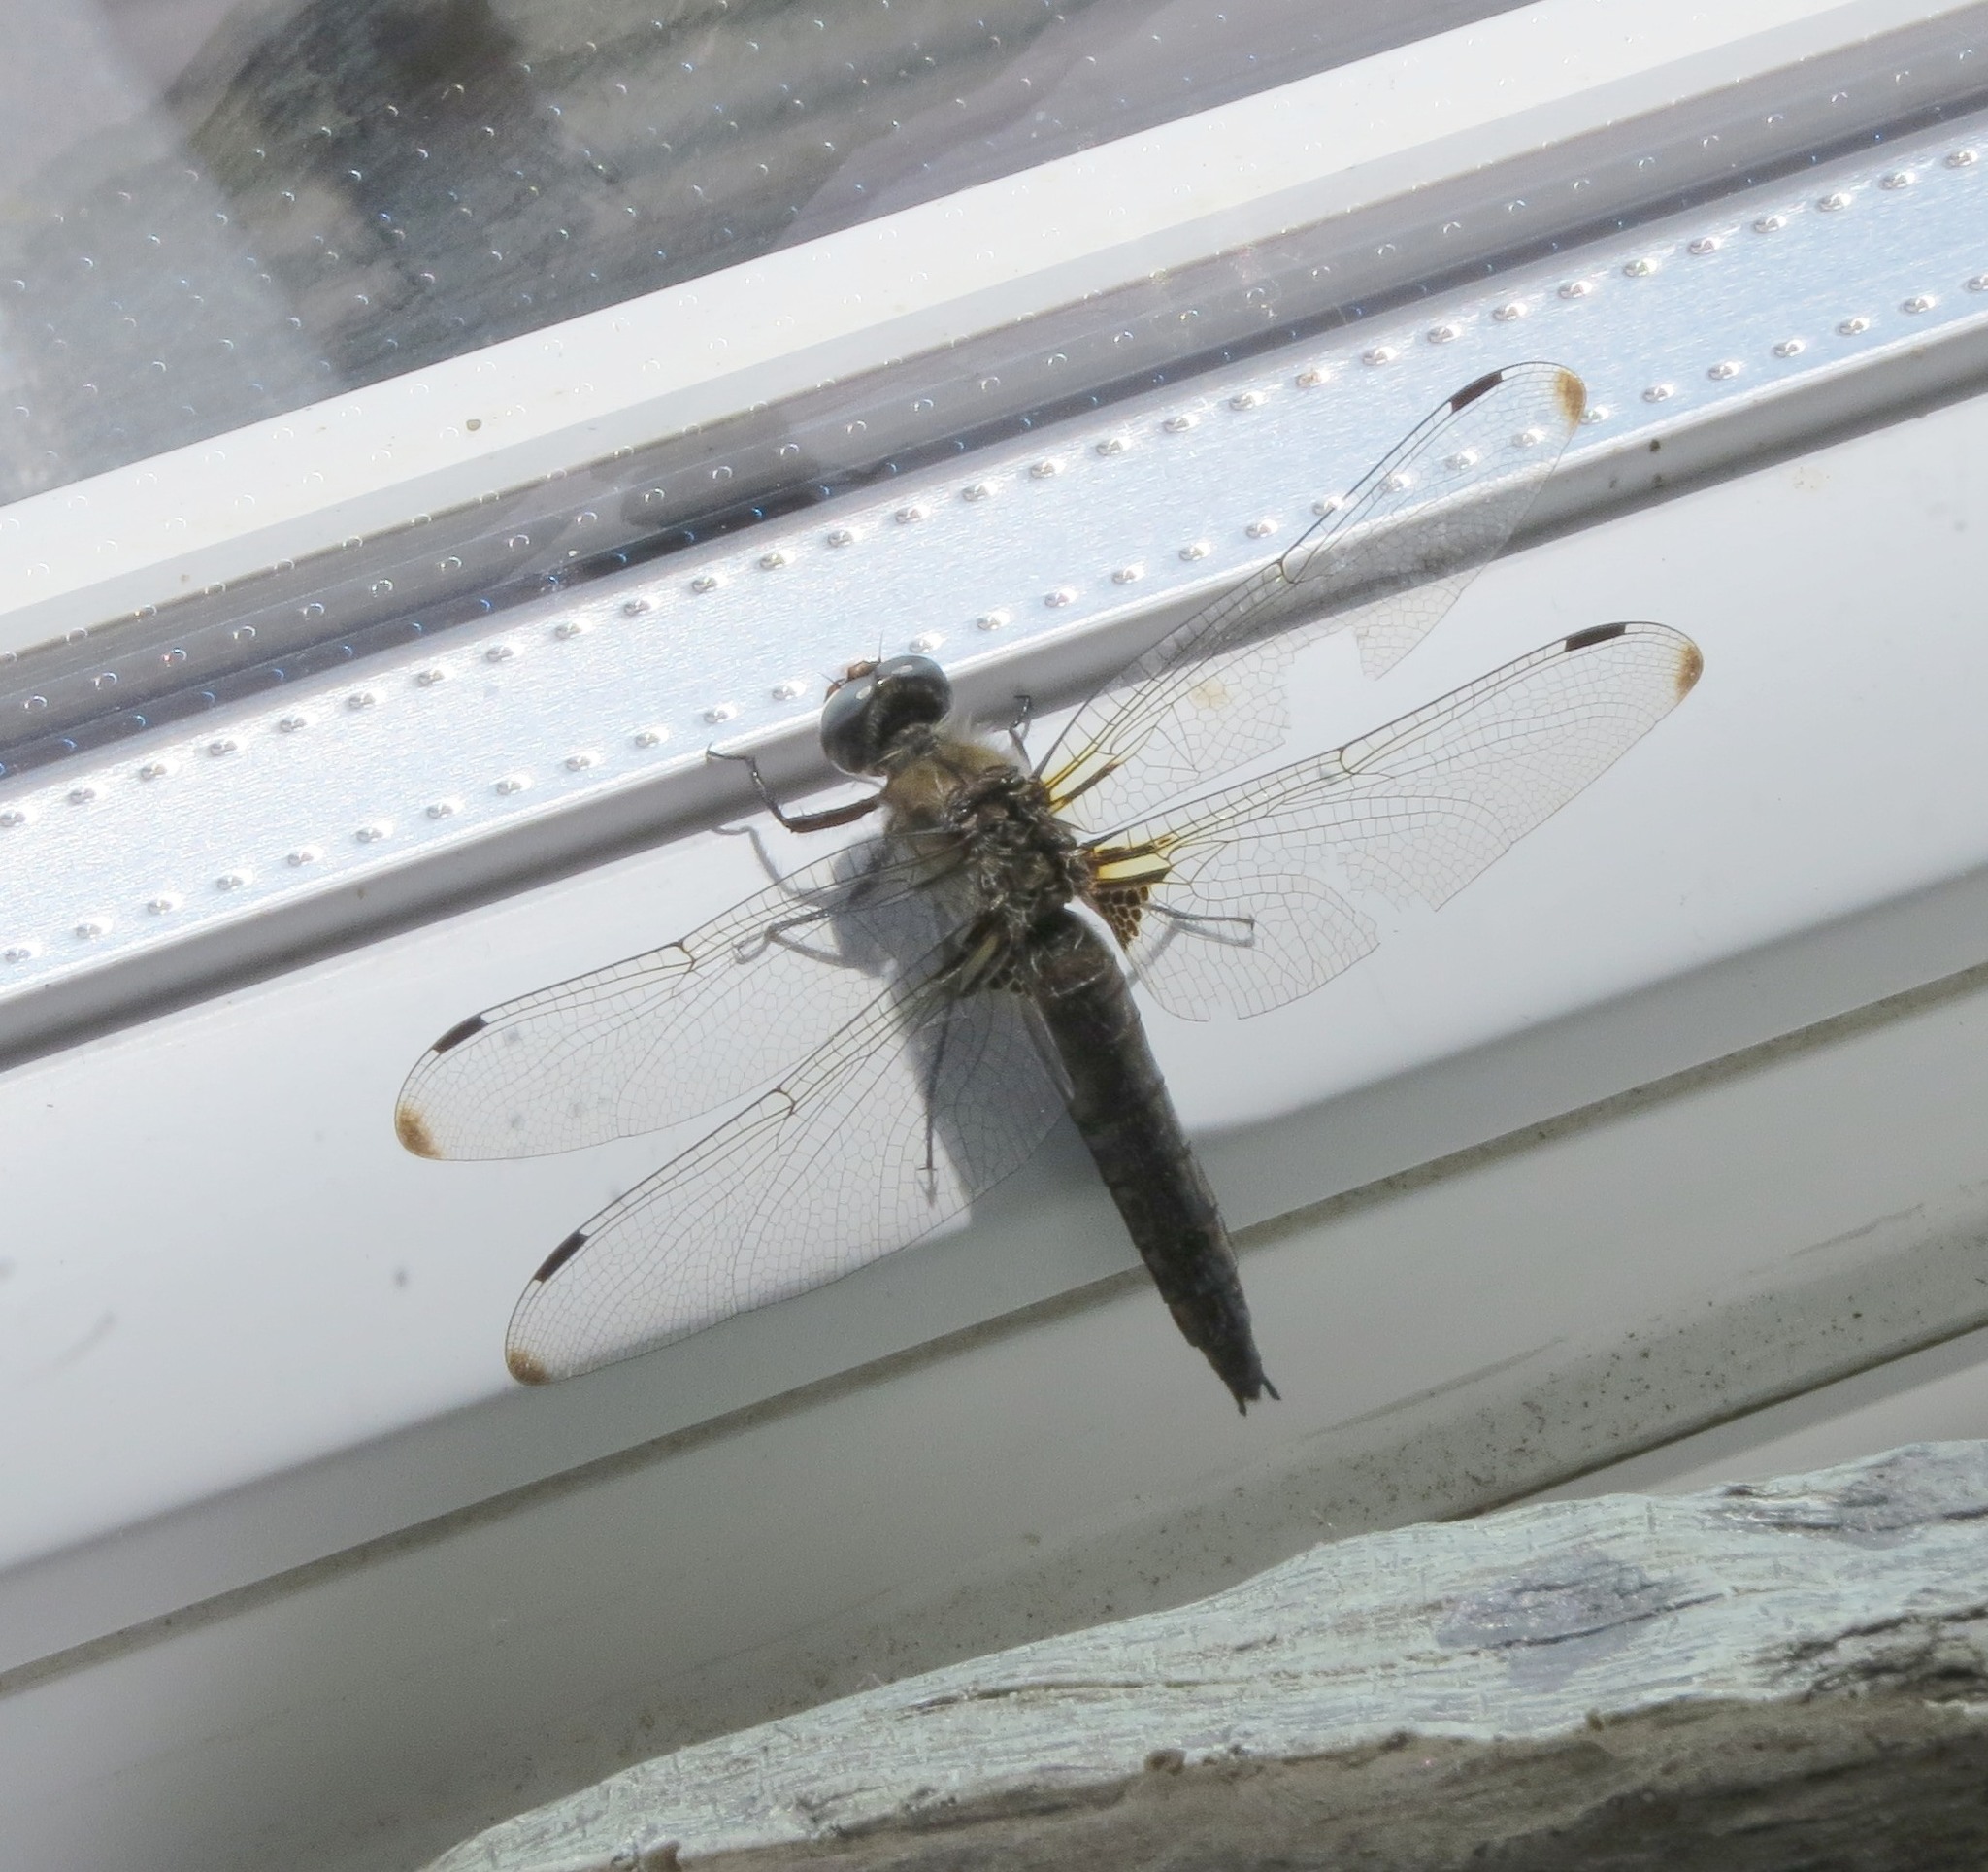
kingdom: Animalia
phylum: Arthropoda
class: Insecta
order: Odonata
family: Libellulidae
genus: Libellula
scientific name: Libellula fulva
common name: Blue chaser
